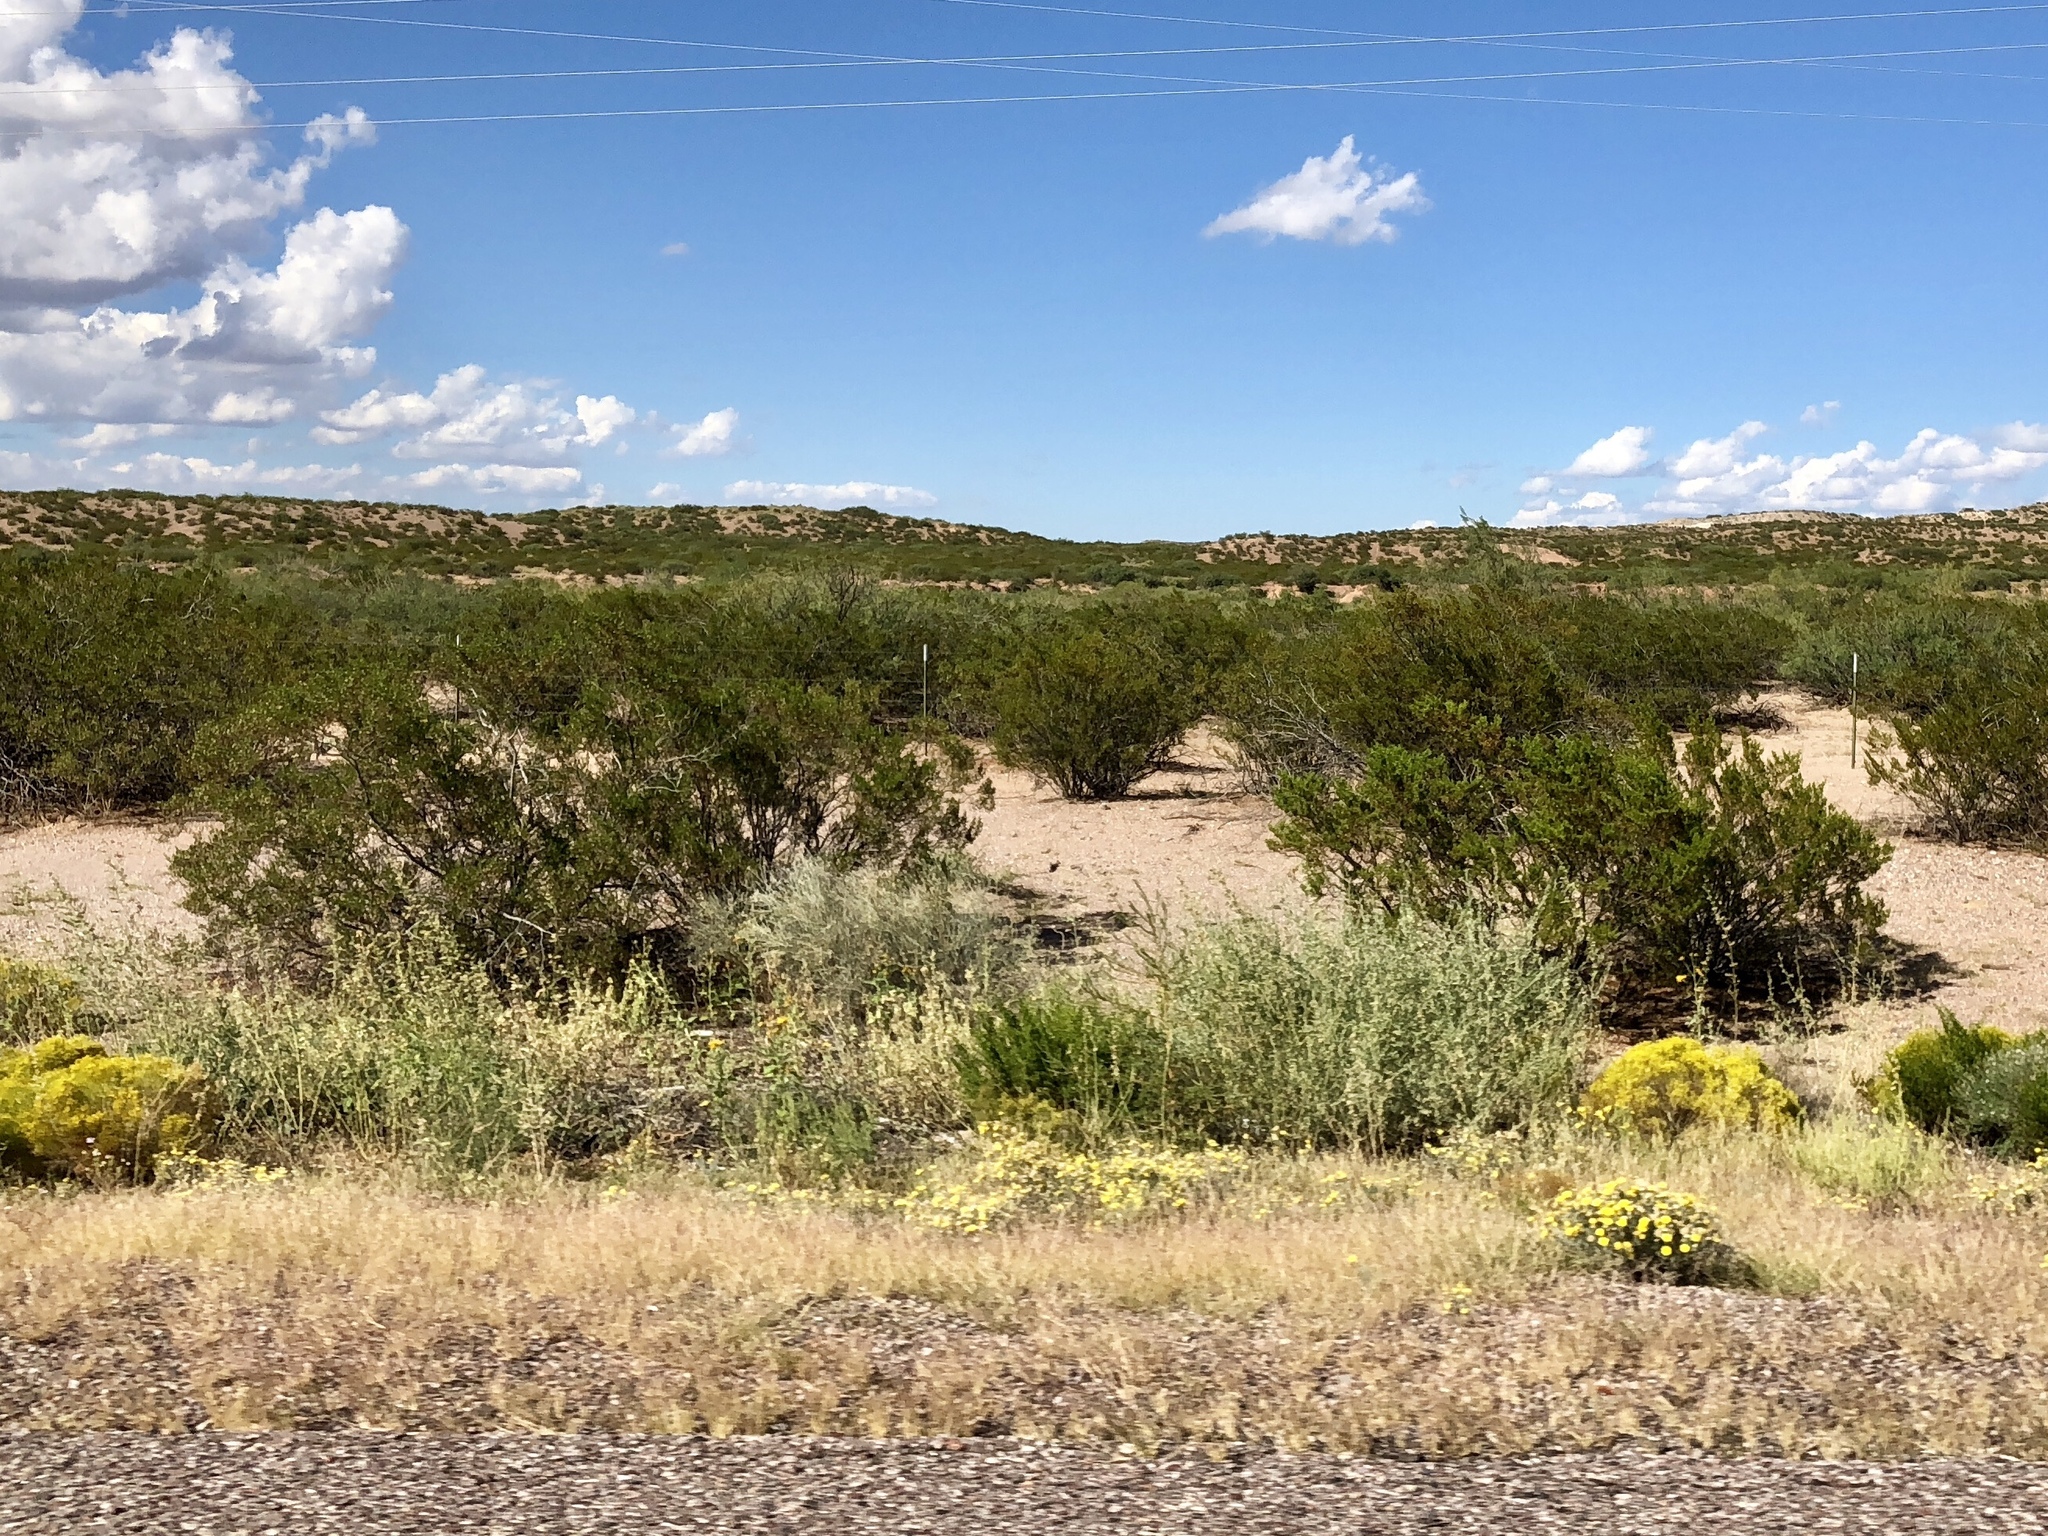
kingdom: Plantae
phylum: Tracheophyta
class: Magnoliopsida
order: Zygophyllales
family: Zygophyllaceae
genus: Larrea
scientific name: Larrea tridentata
